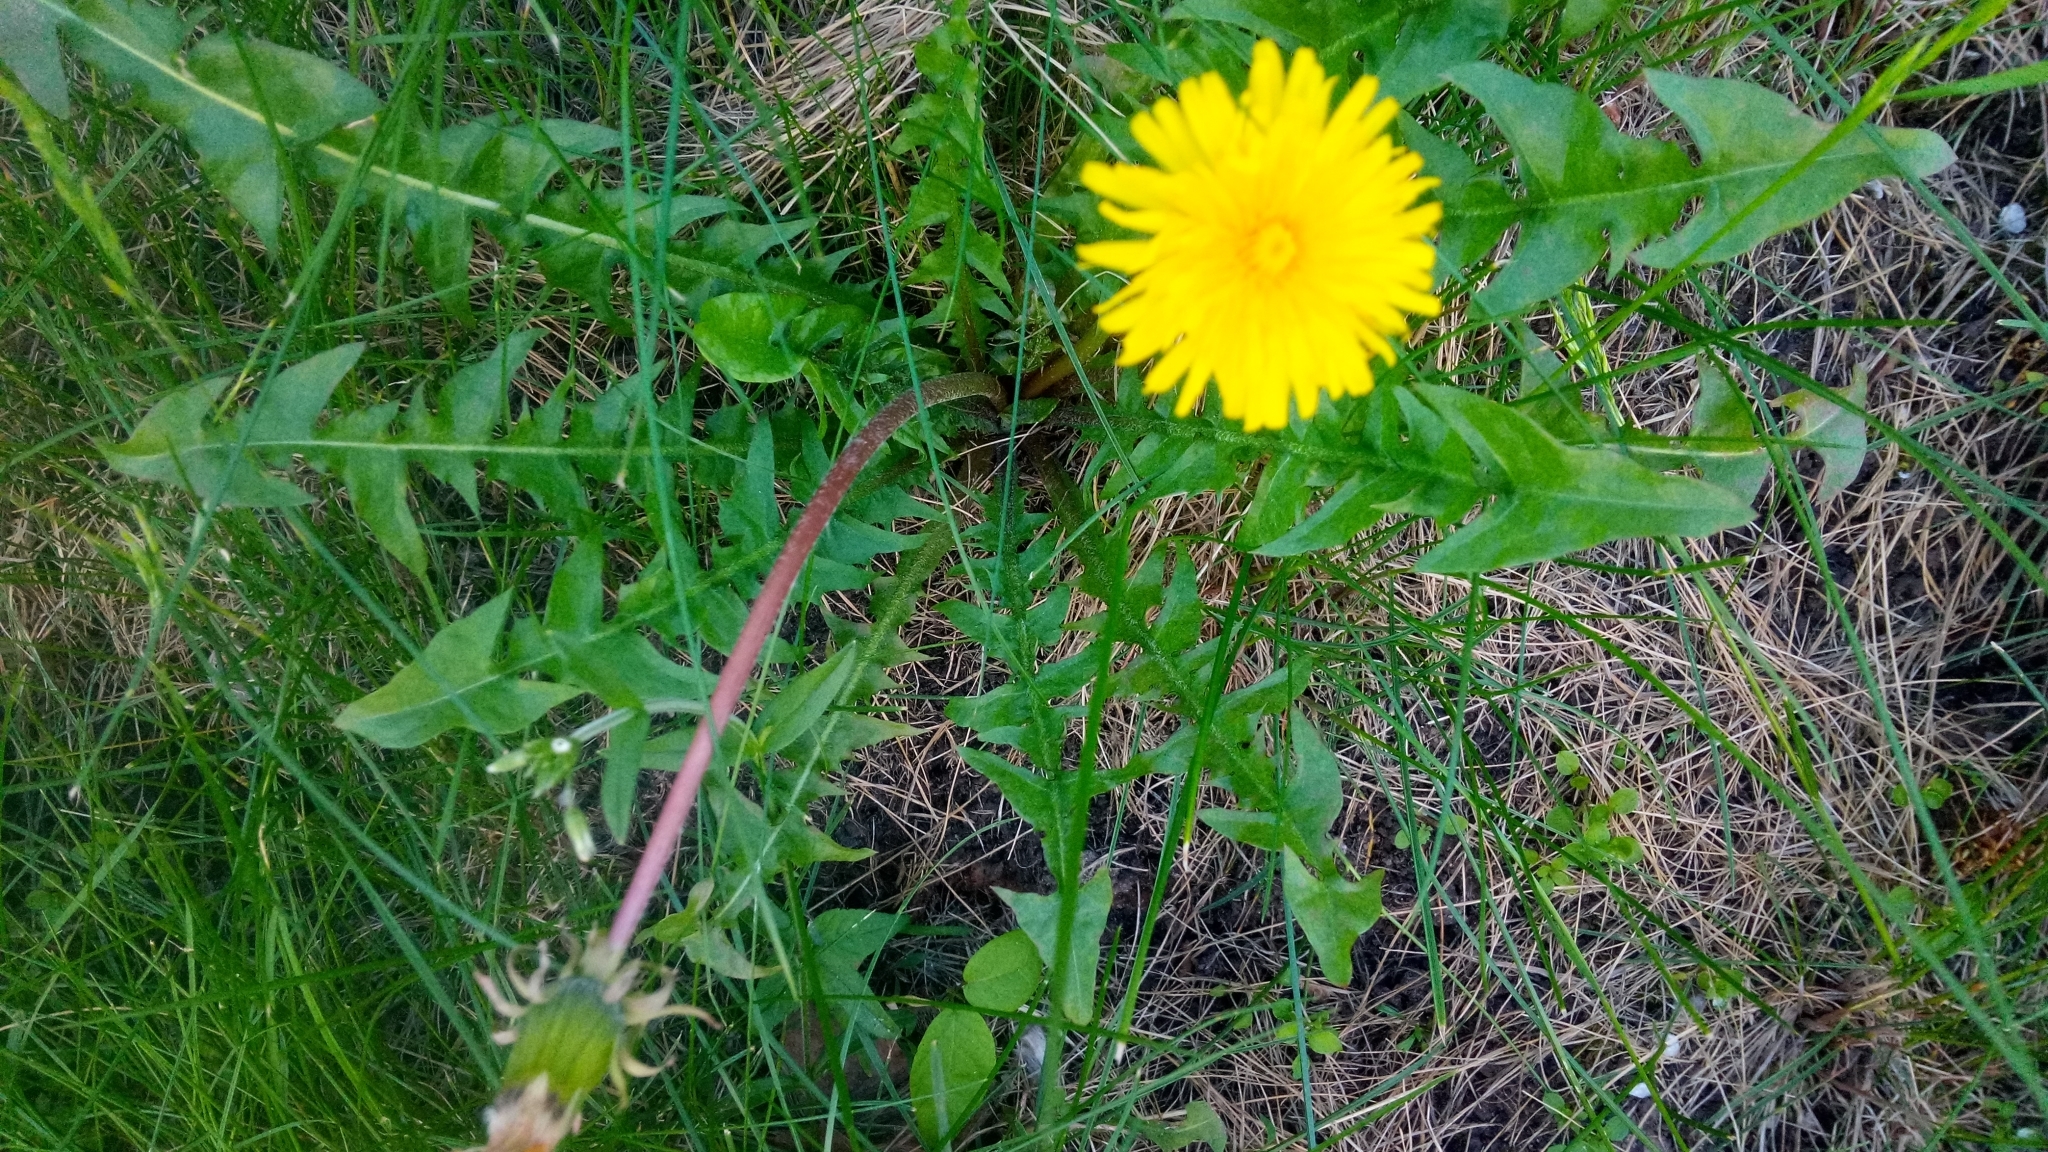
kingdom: Plantae
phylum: Tracheophyta
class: Magnoliopsida
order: Asterales
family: Asteraceae
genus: Taraxacum
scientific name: Taraxacum officinale
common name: Common dandelion
